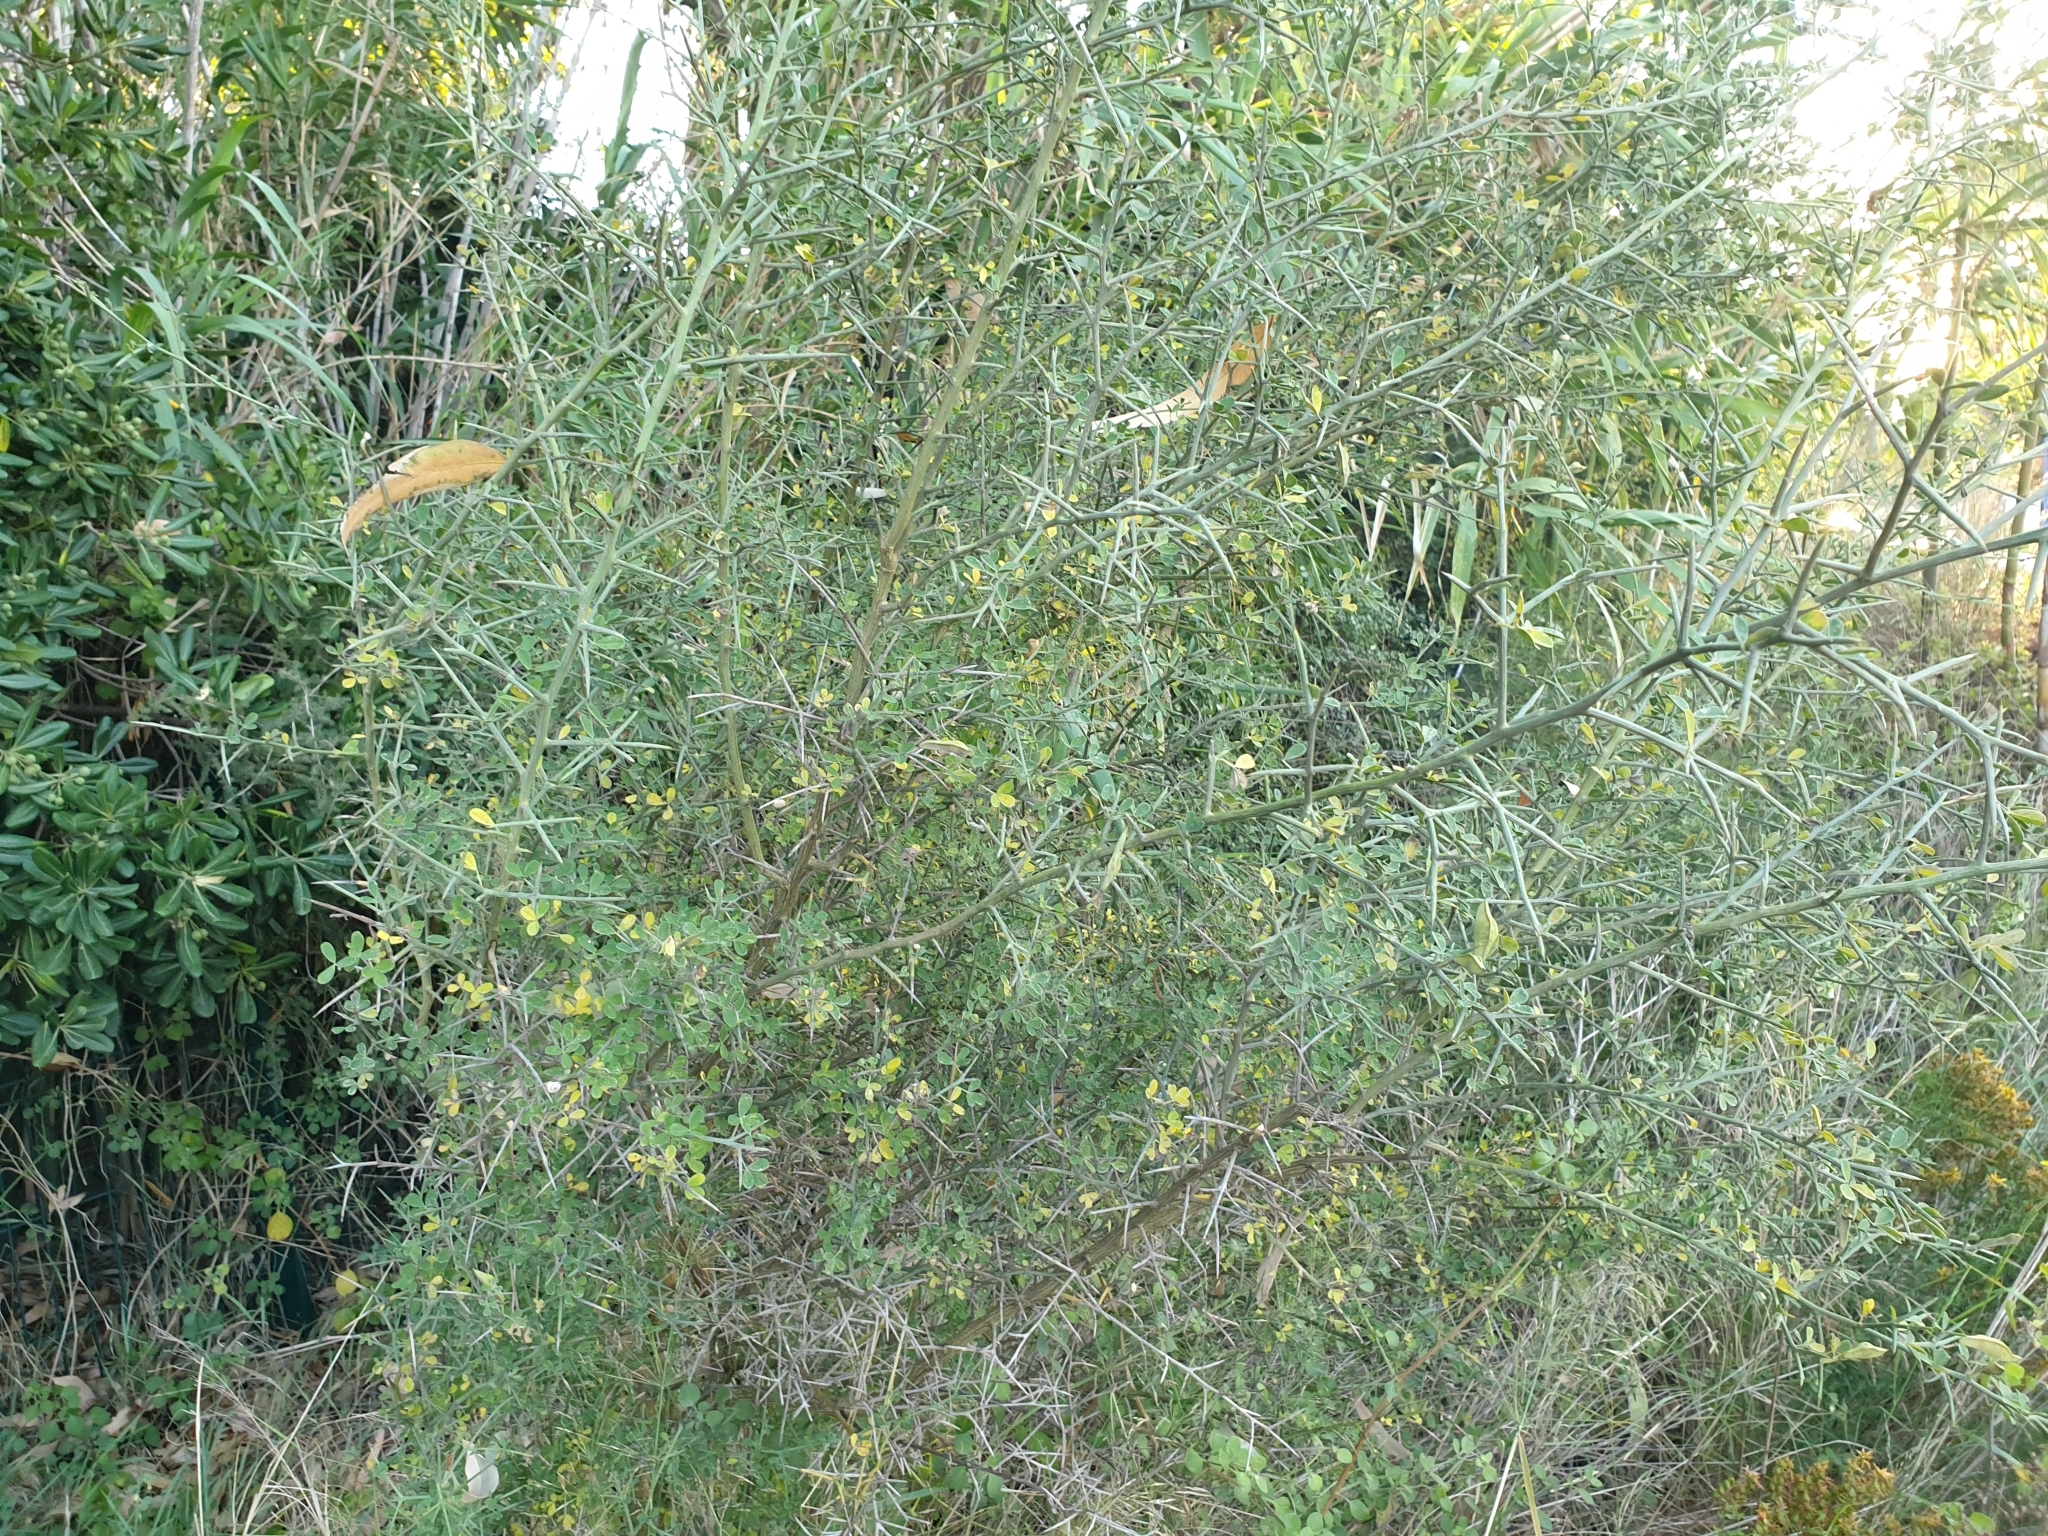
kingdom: Plantae
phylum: Tracheophyta
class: Magnoliopsida
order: Fabales
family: Fabaceae
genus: Calicotome
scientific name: Calicotome spinosa
